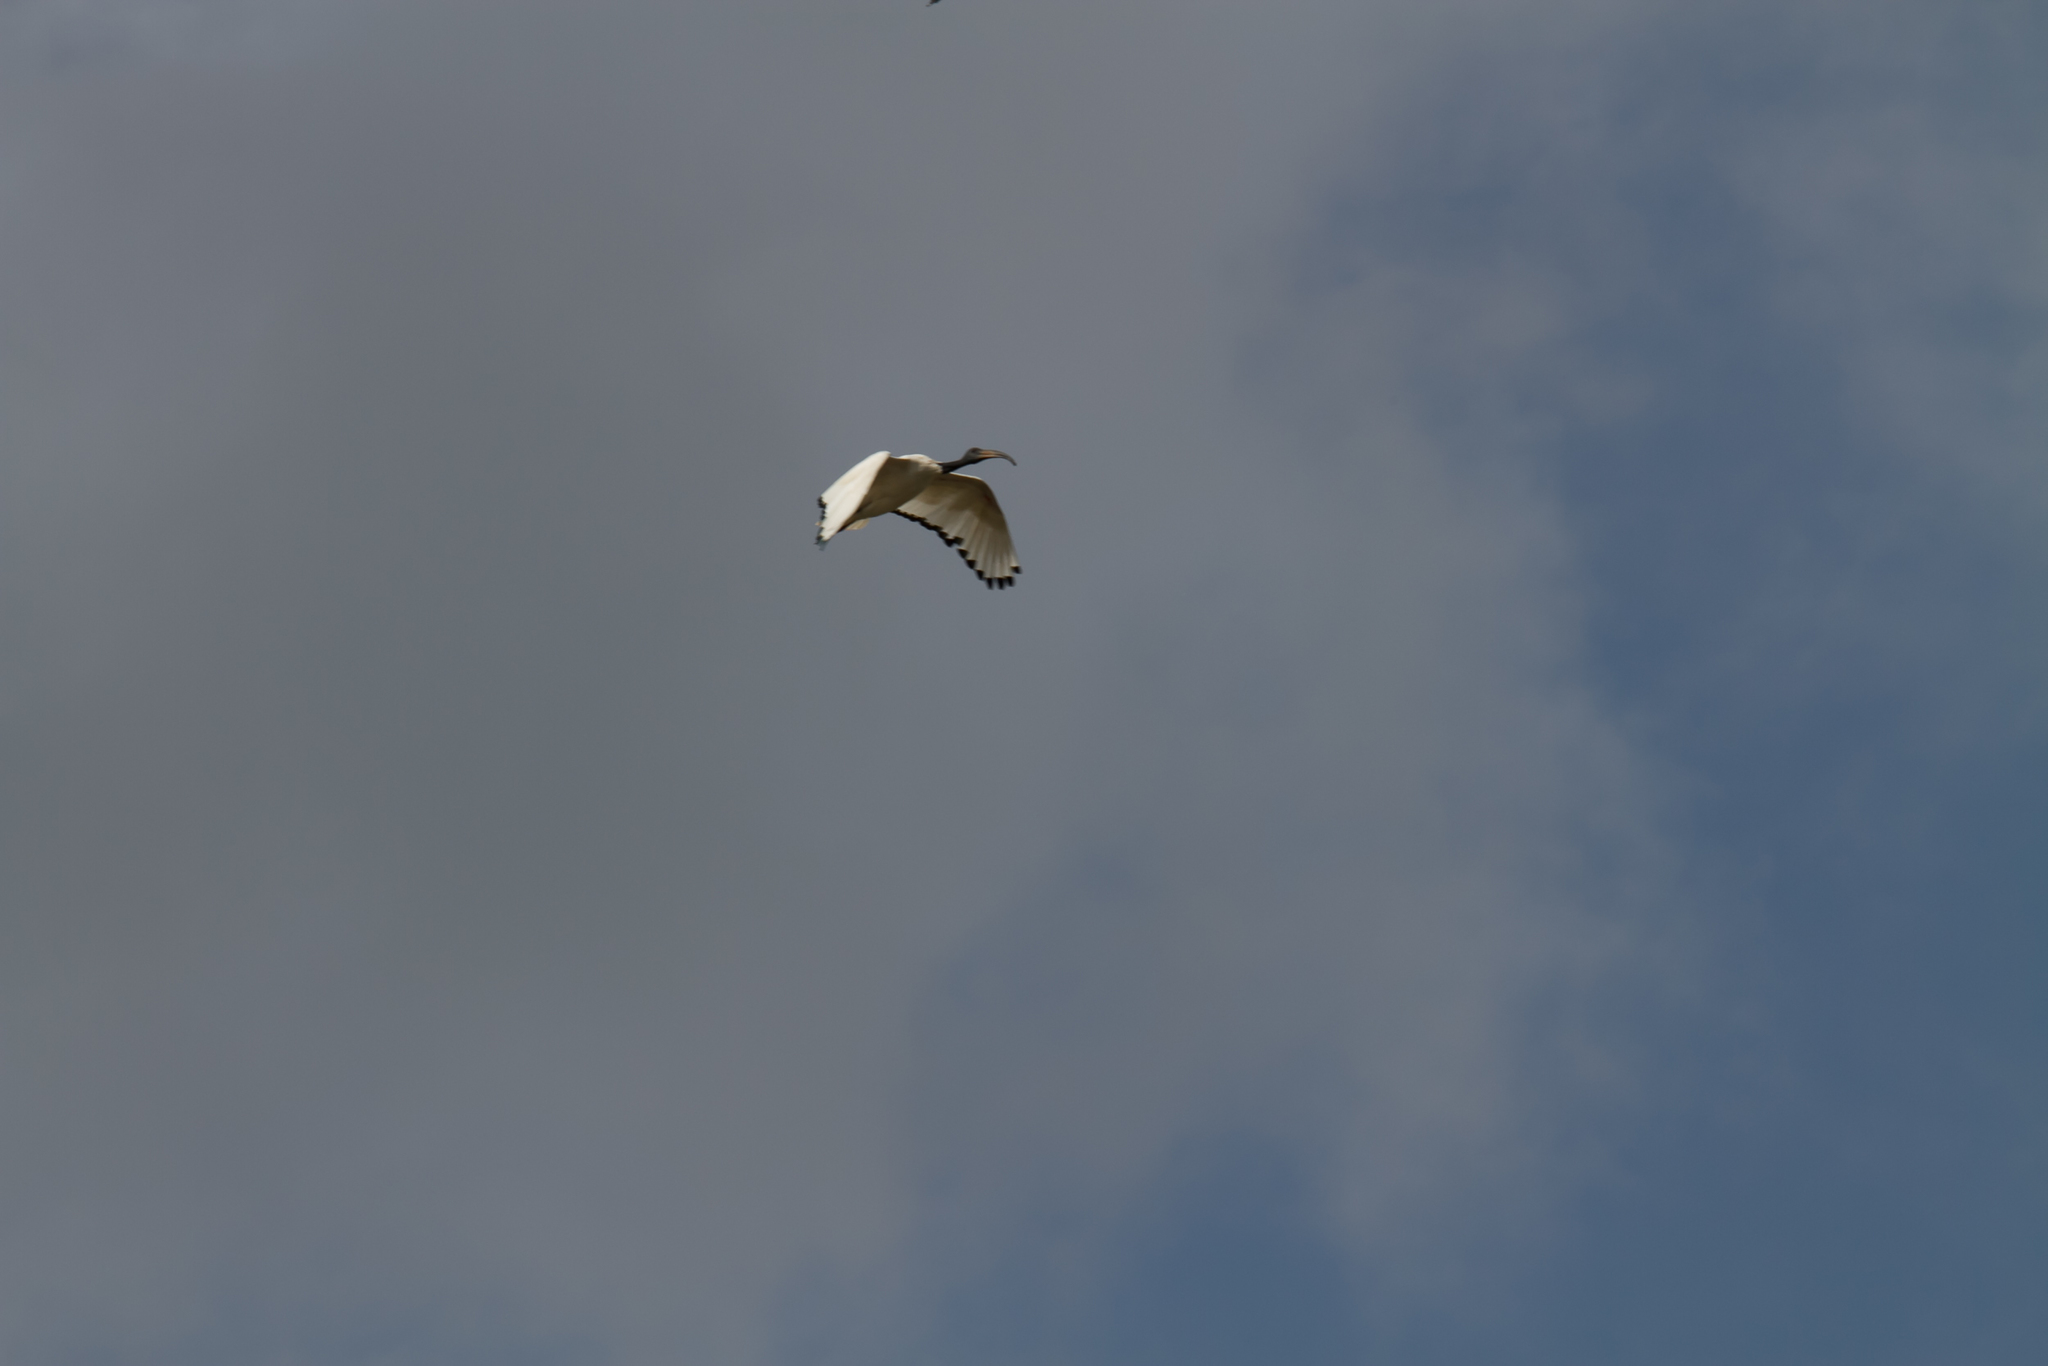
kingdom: Animalia
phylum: Chordata
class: Aves
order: Pelecaniformes
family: Threskiornithidae
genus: Threskiornis
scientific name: Threskiornis aethiopicus
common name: Sacred ibis
